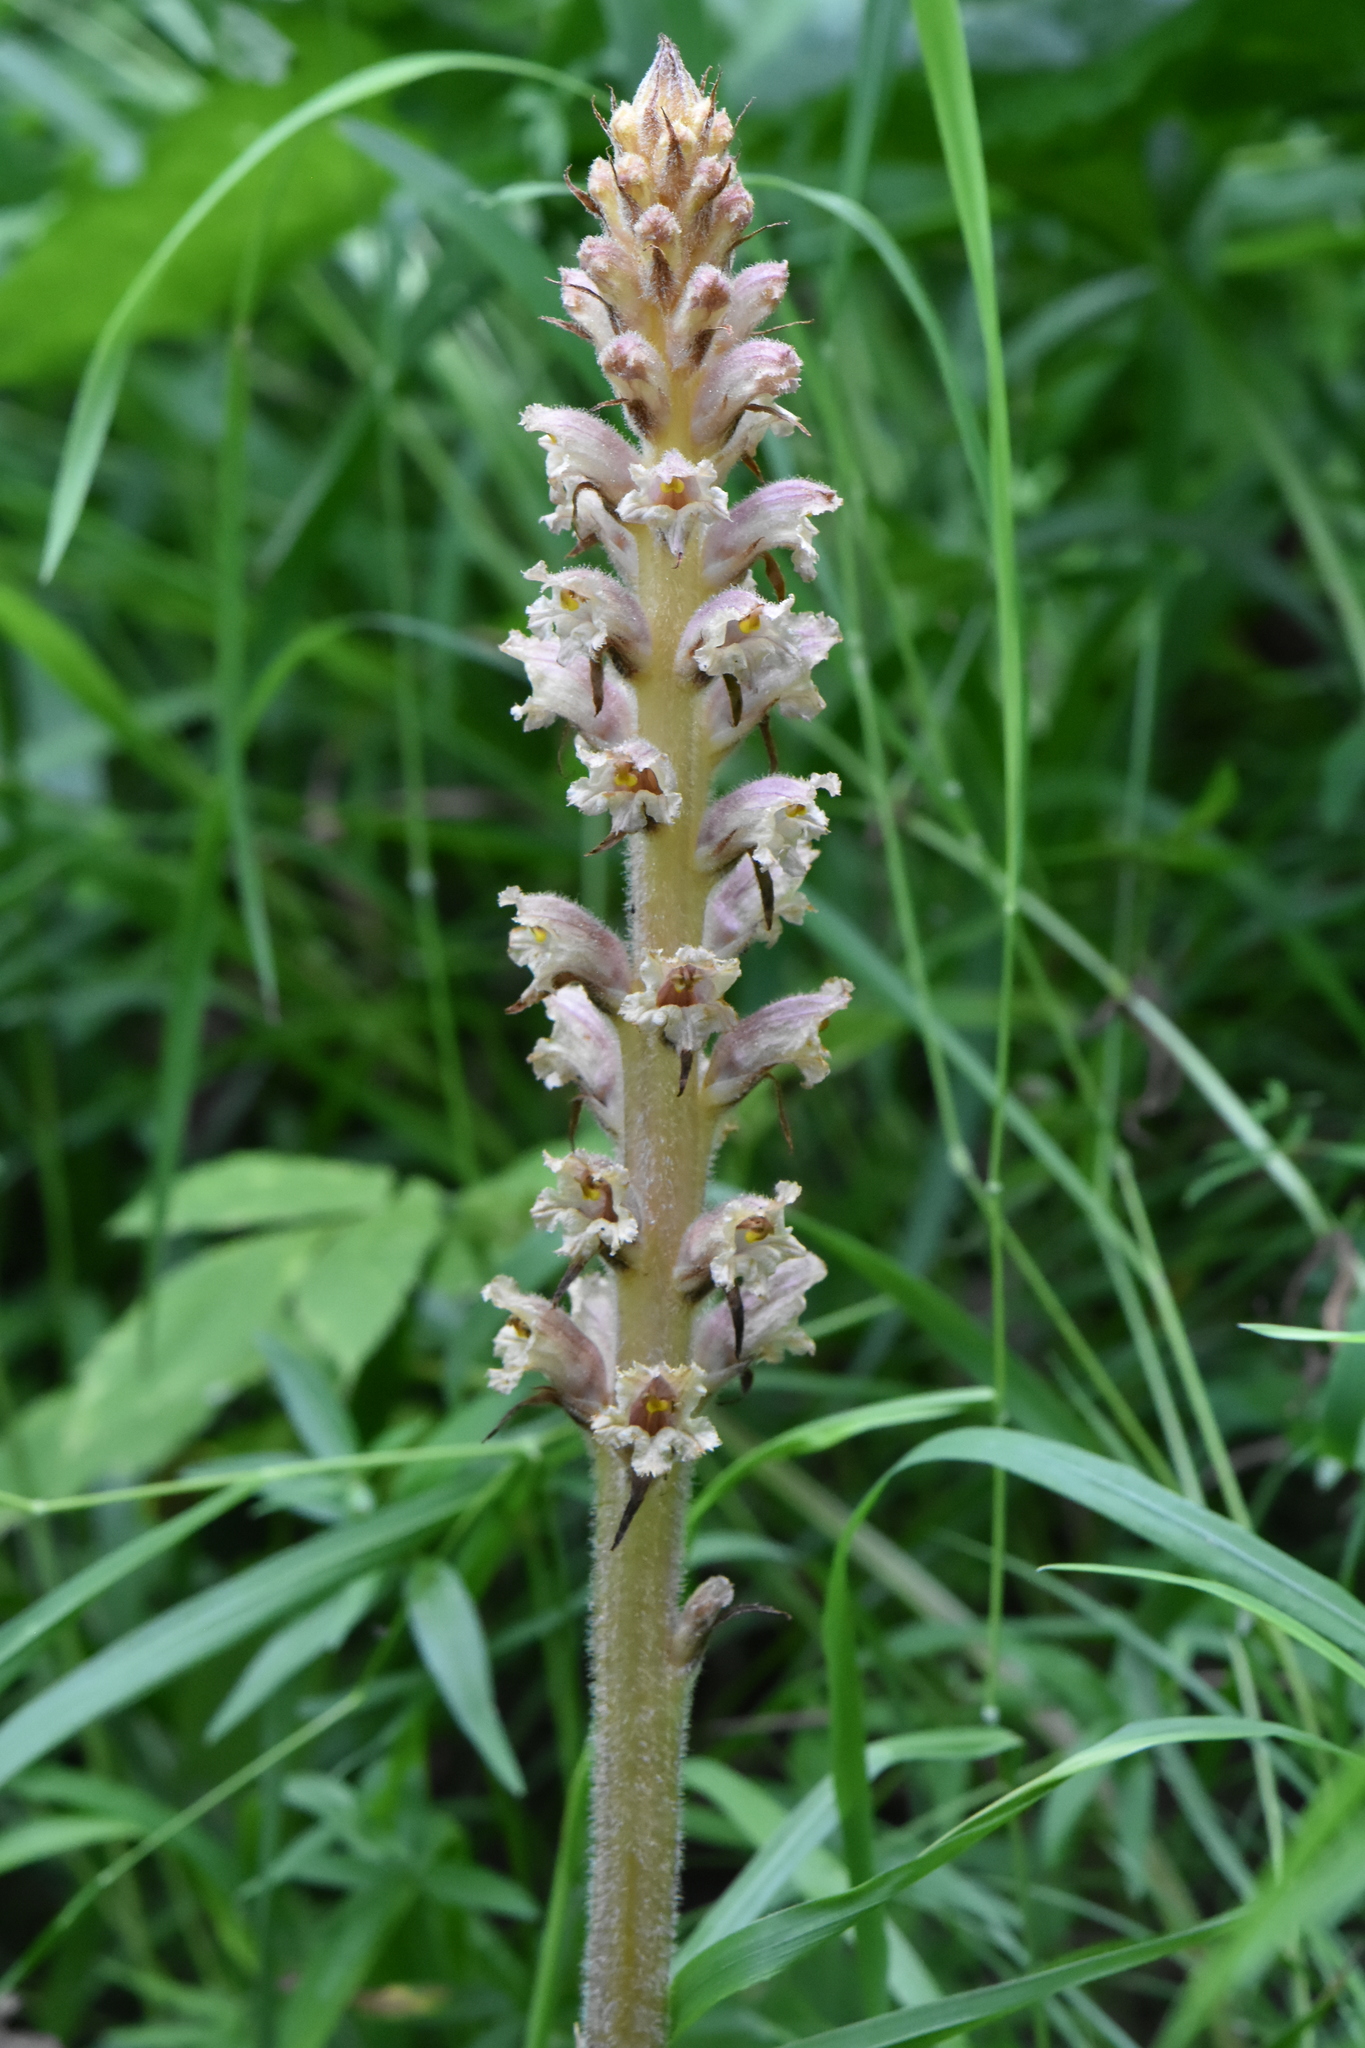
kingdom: Plantae
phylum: Tracheophyta
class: Magnoliopsida
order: Lamiales
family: Orobanchaceae
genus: Orobanche
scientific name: Orobanche alsatica
